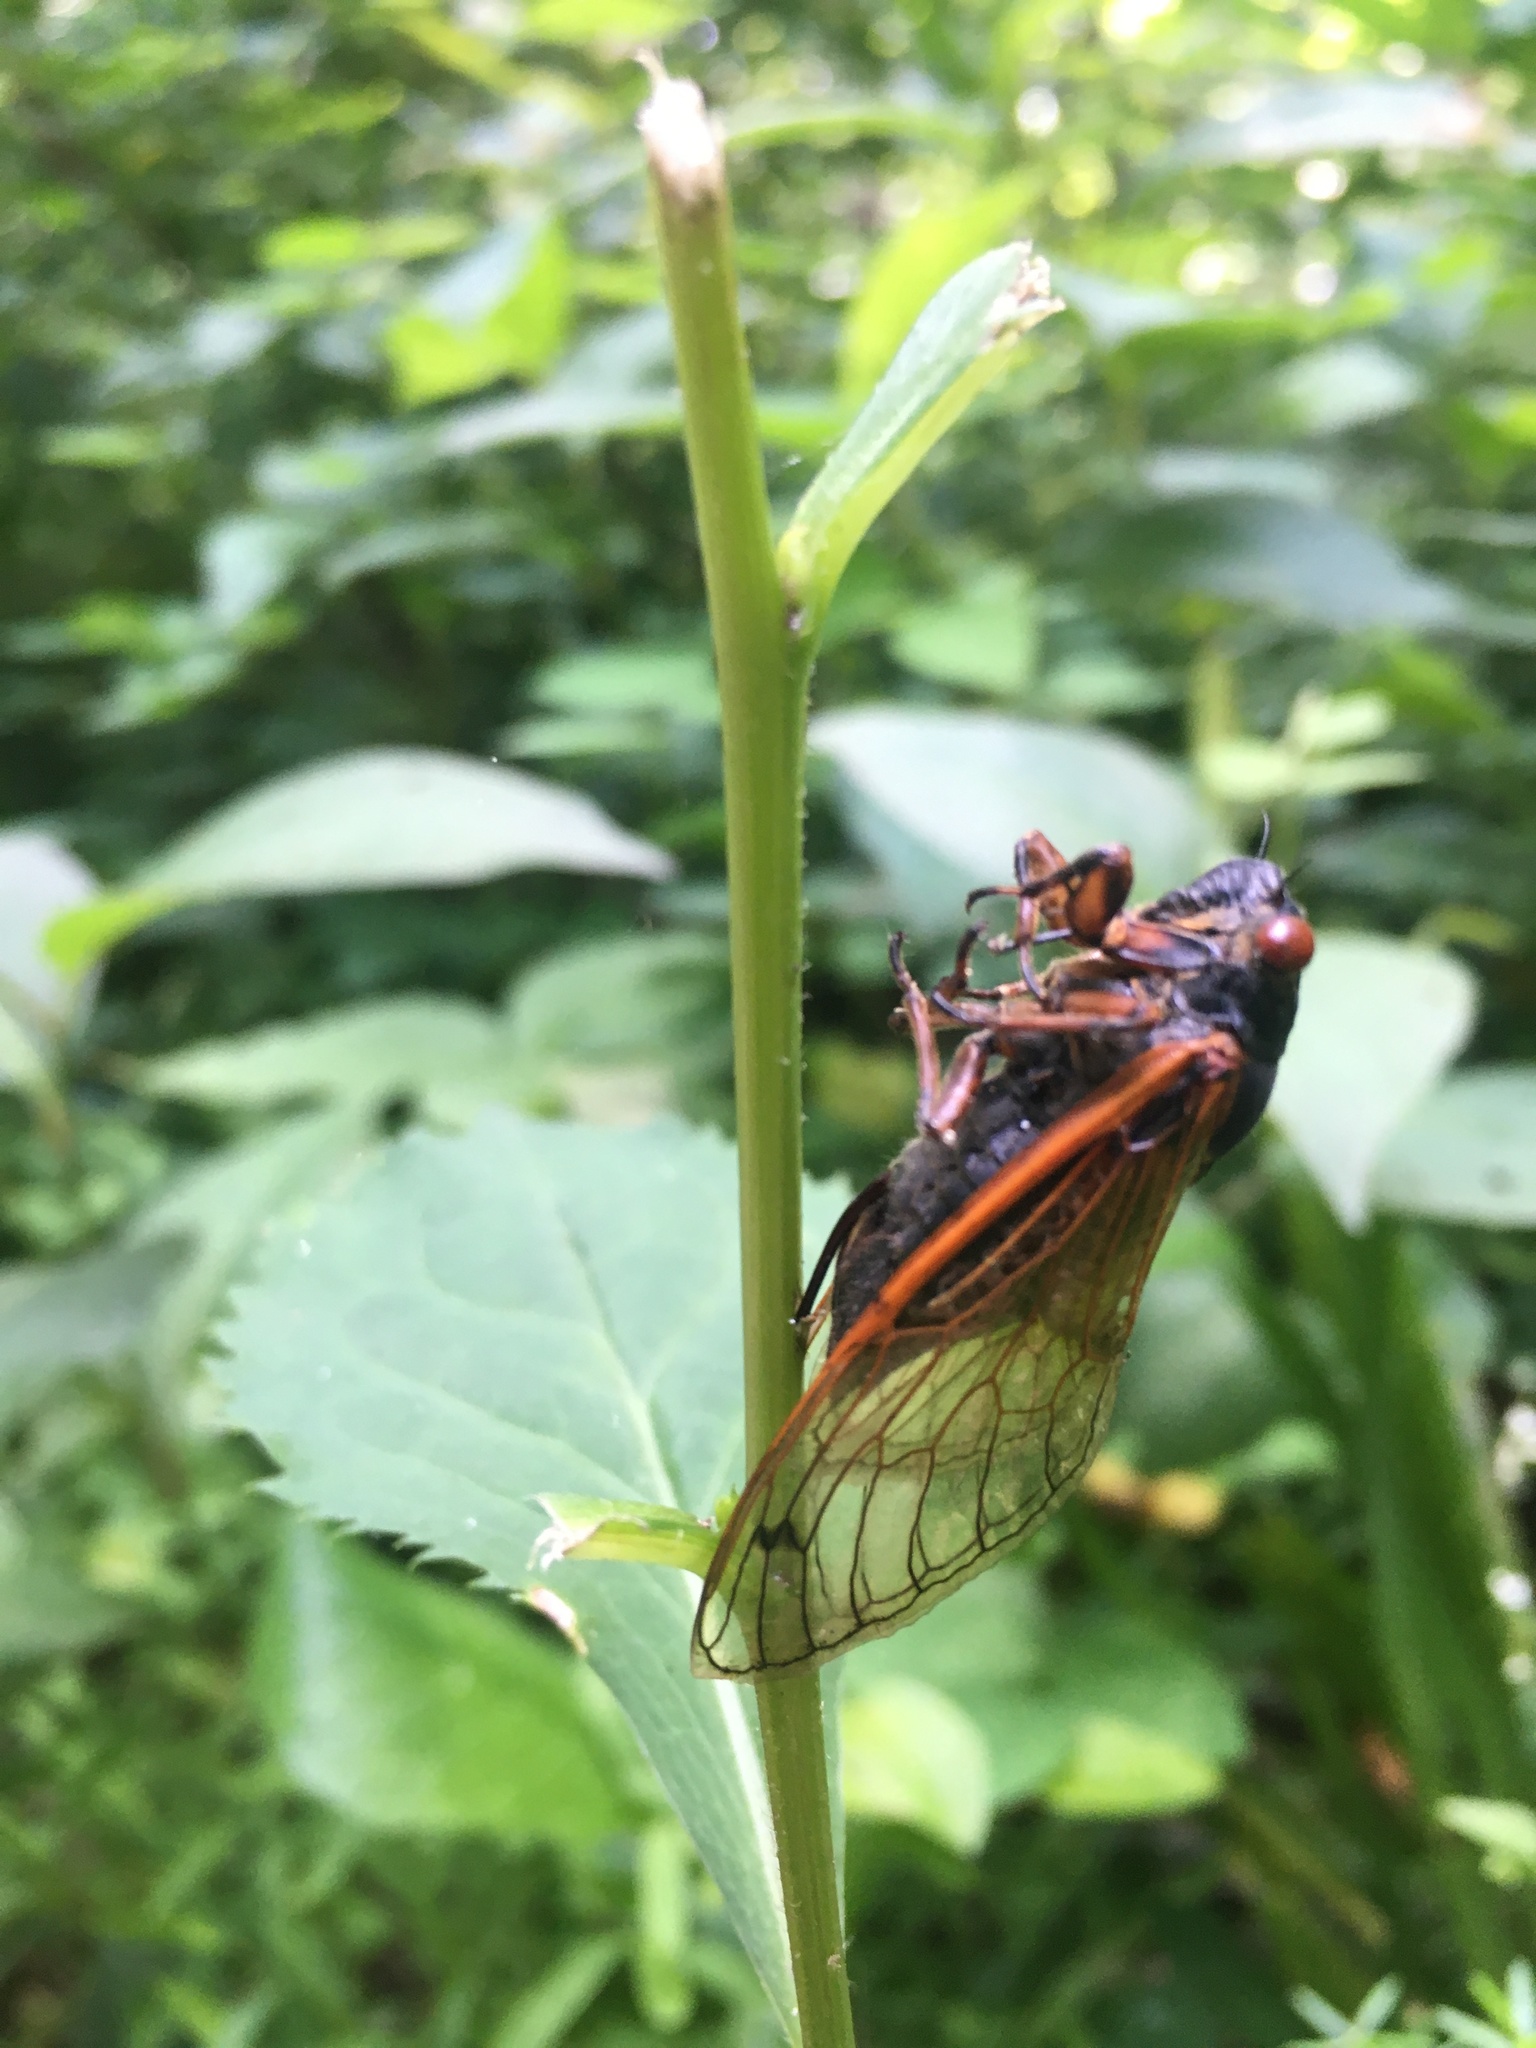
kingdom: Animalia
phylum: Arthropoda
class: Insecta
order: Hemiptera
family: Cicadidae
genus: Magicicada
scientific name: Magicicada cassini
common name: Cassin's 17-year cicada
